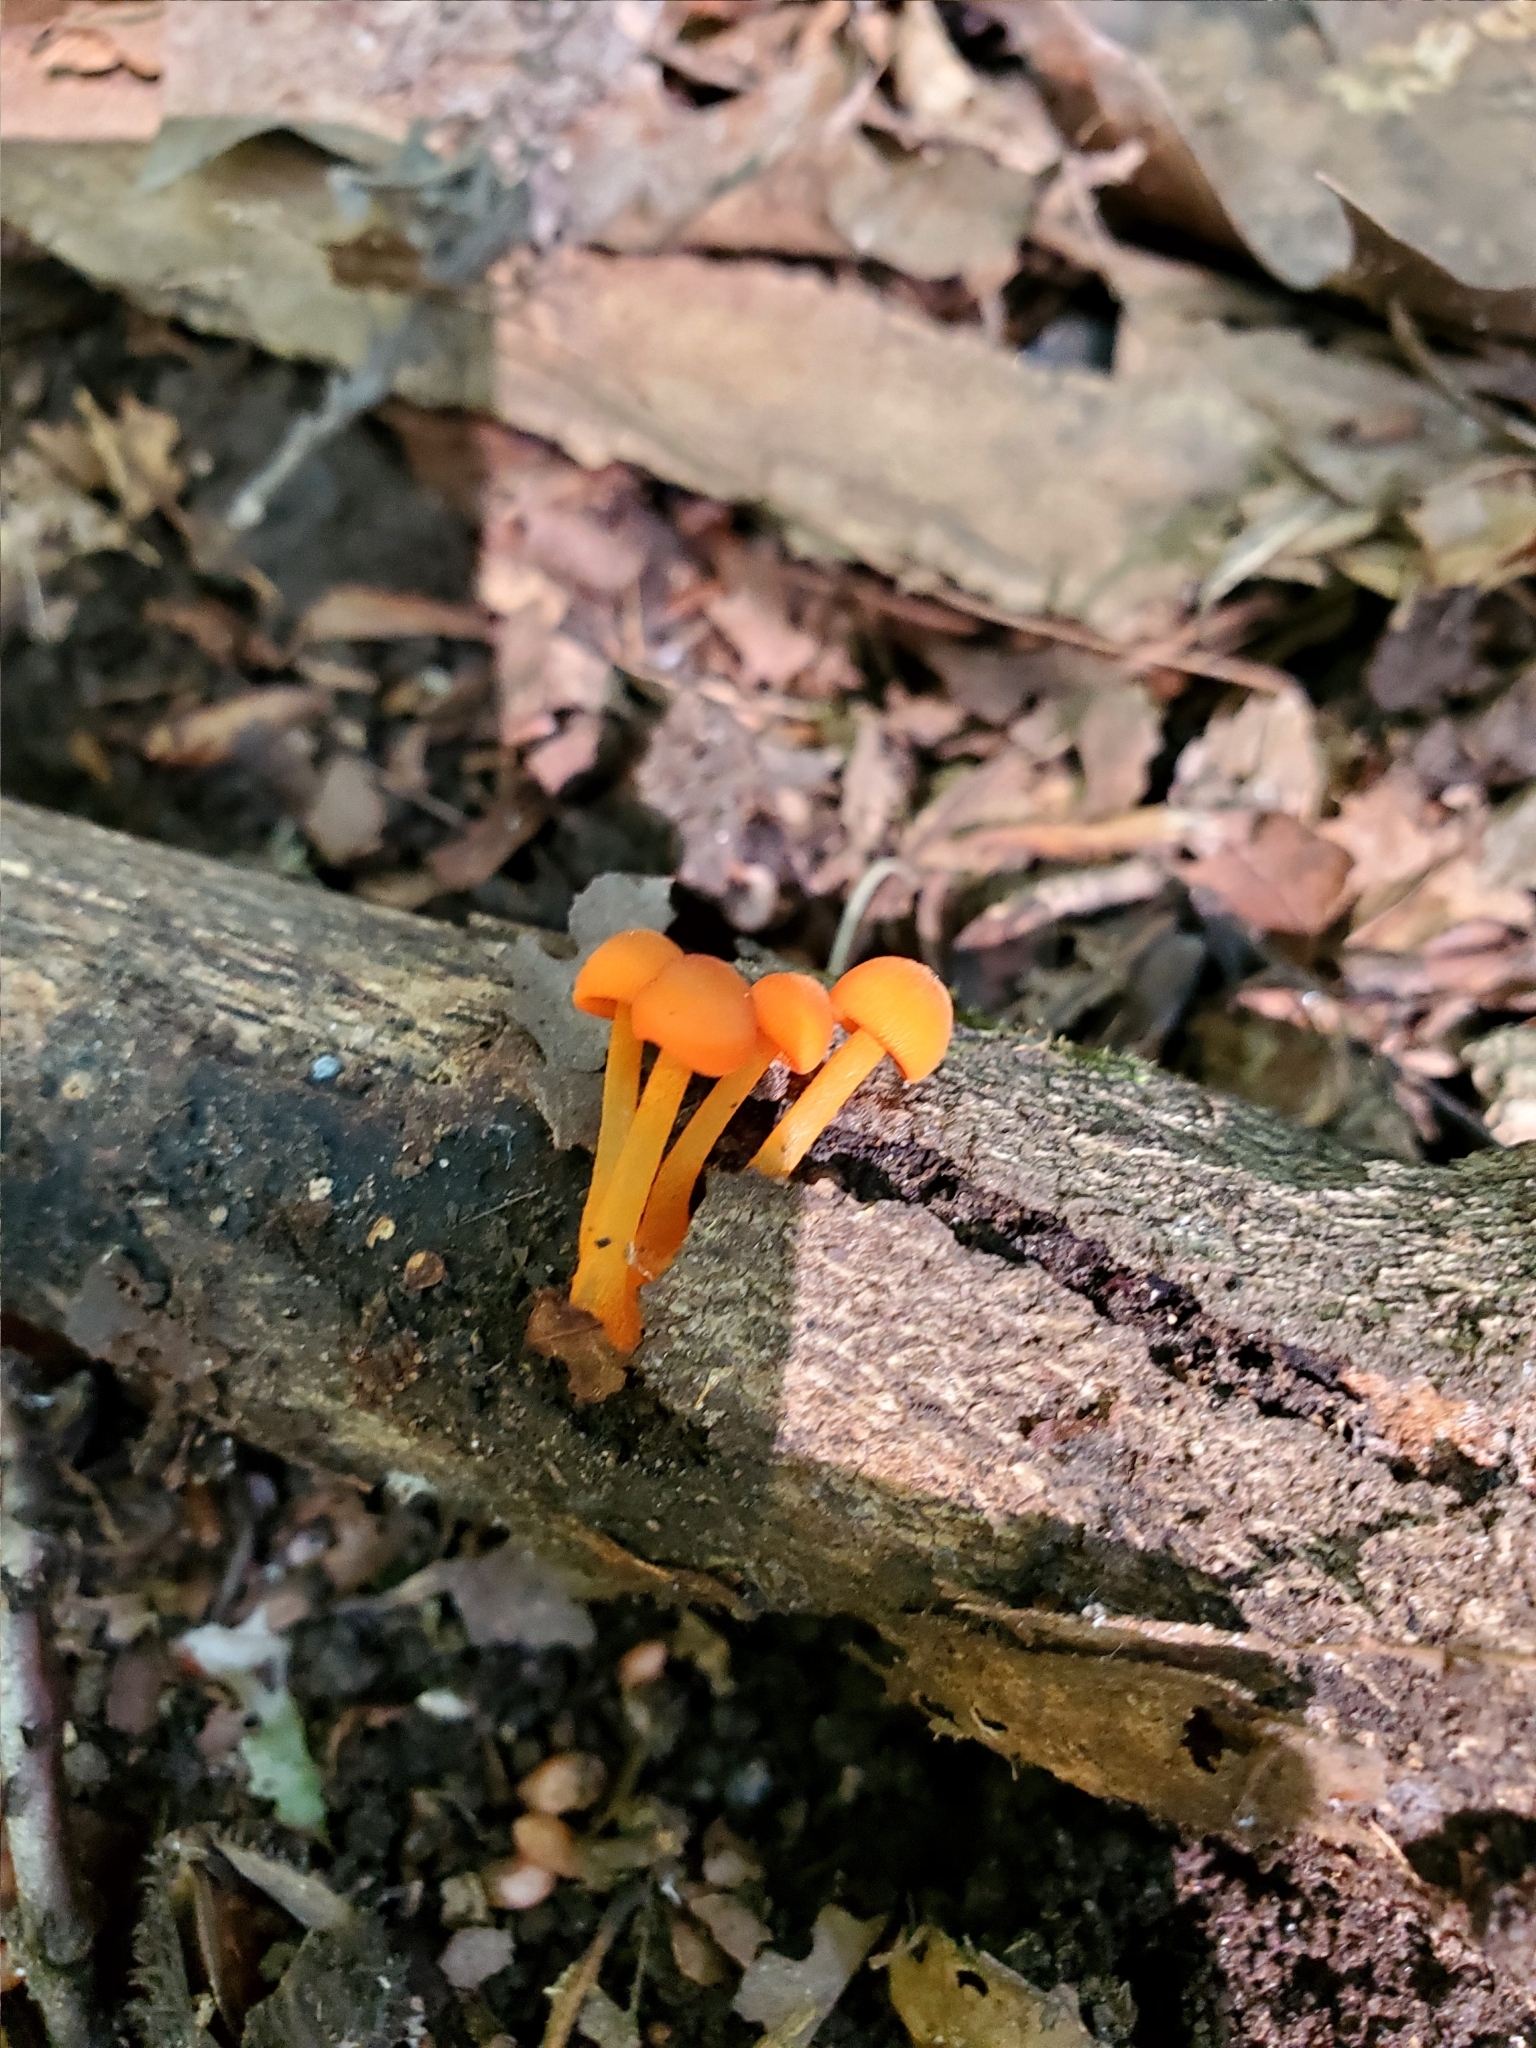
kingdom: Fungi
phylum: Basidiomycota
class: Agaricomycetes
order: Agaricales
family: Mycenaceae
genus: Mycena
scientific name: Mycena leaiana
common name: Orange mycena
